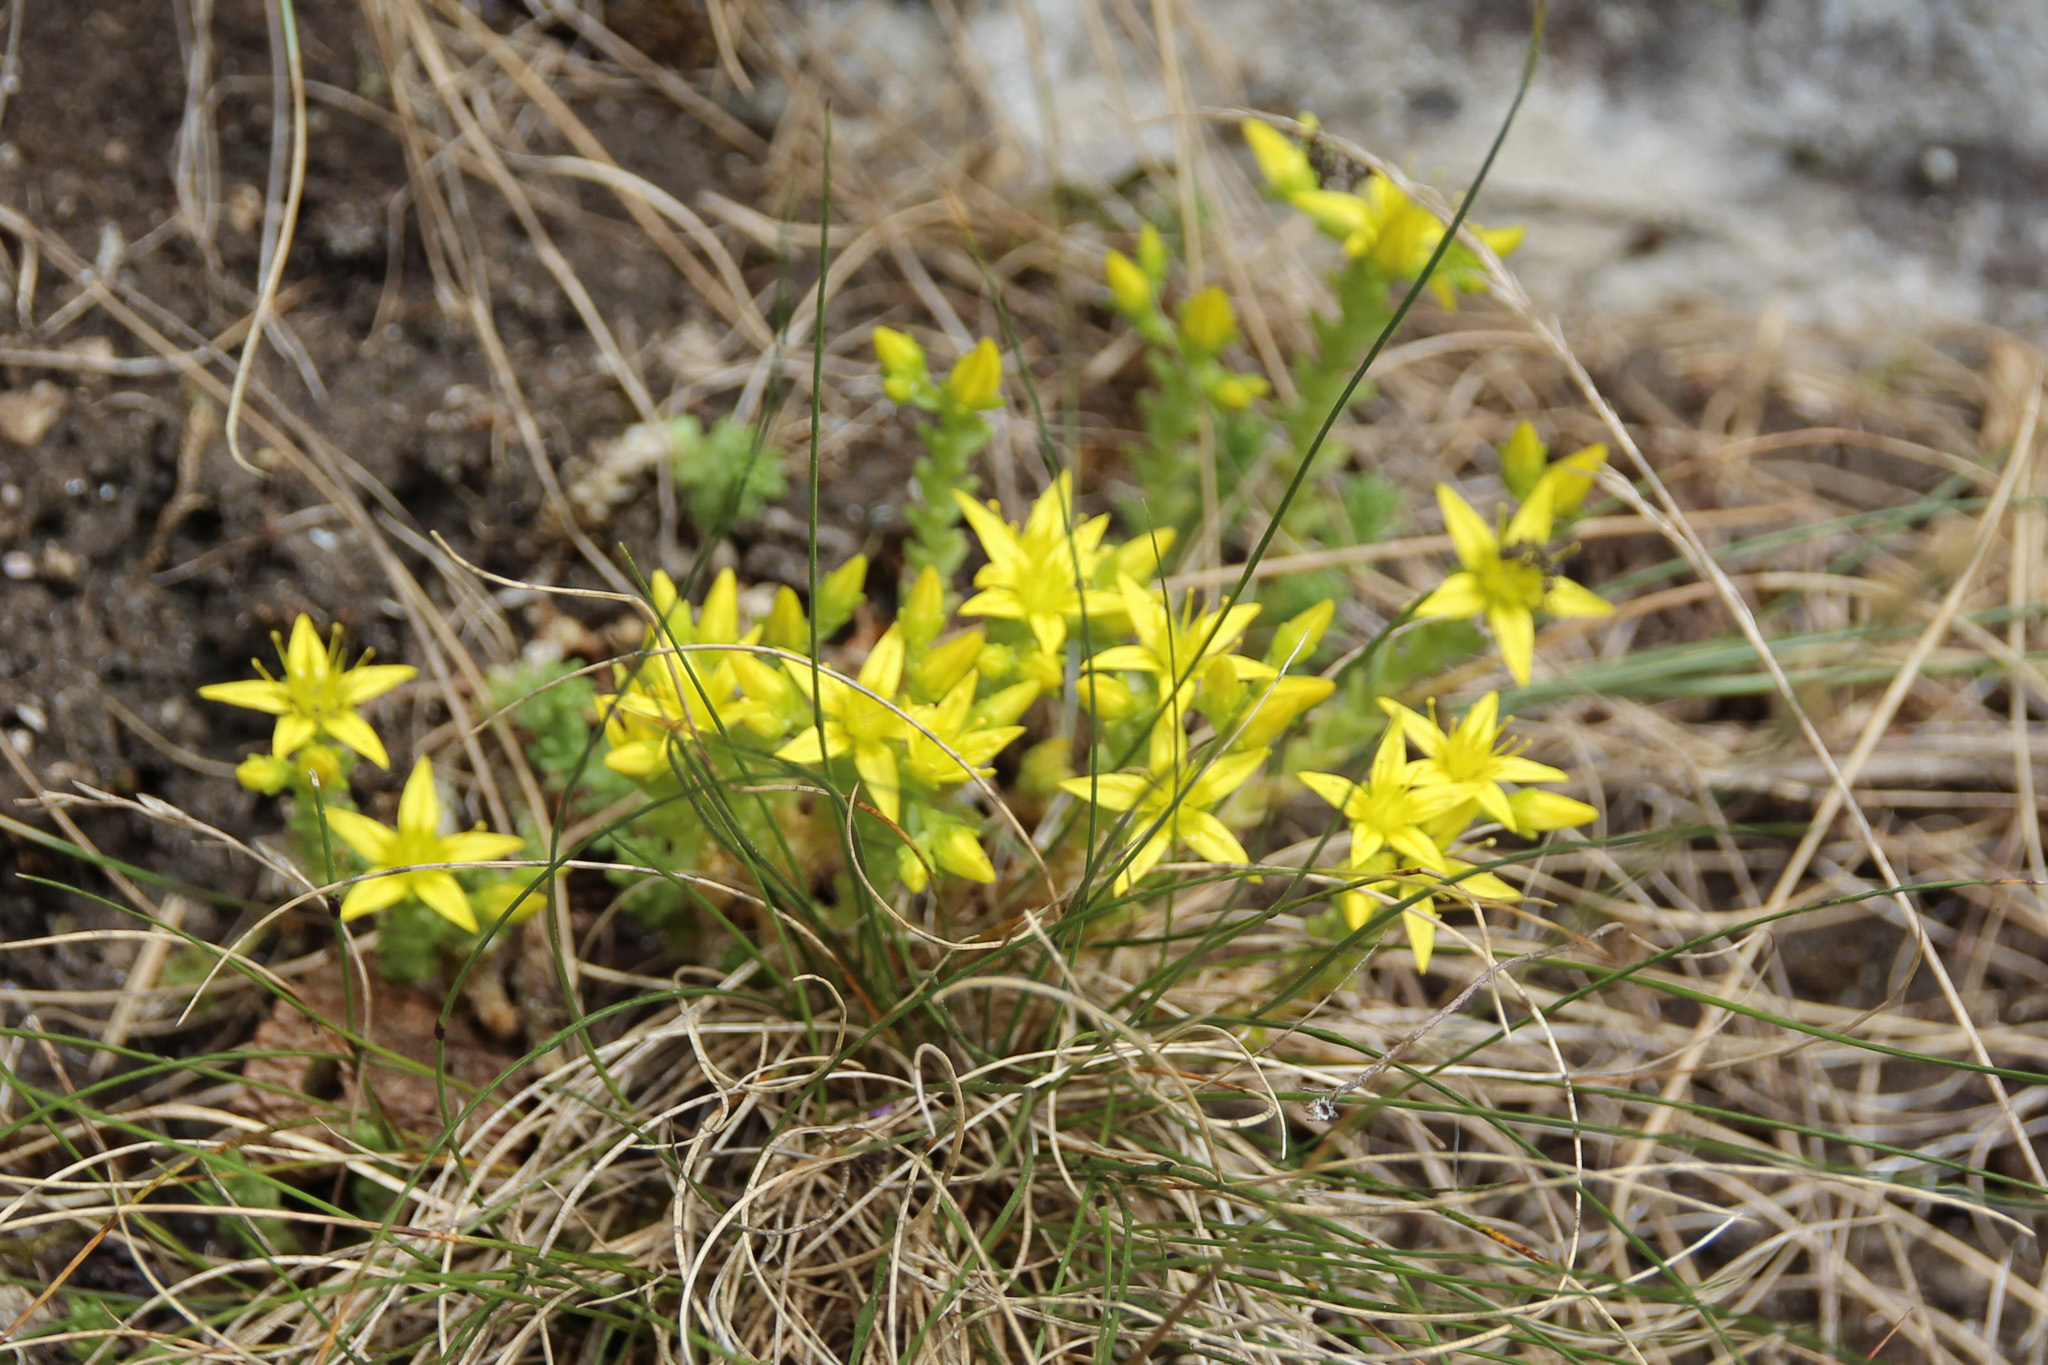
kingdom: Plantae
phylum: Tracheophyta
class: Magnoliopsida
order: Saxifragales
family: Crassulaceae
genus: Sedum
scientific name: Sedum acre
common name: Biting stonecrop
